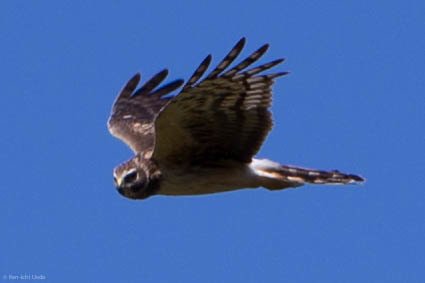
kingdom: Animalia
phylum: Chordata
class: Aves
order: Accipitriformes
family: Accipitridae
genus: Circus
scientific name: Circus cyaneus
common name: Hen harrier
